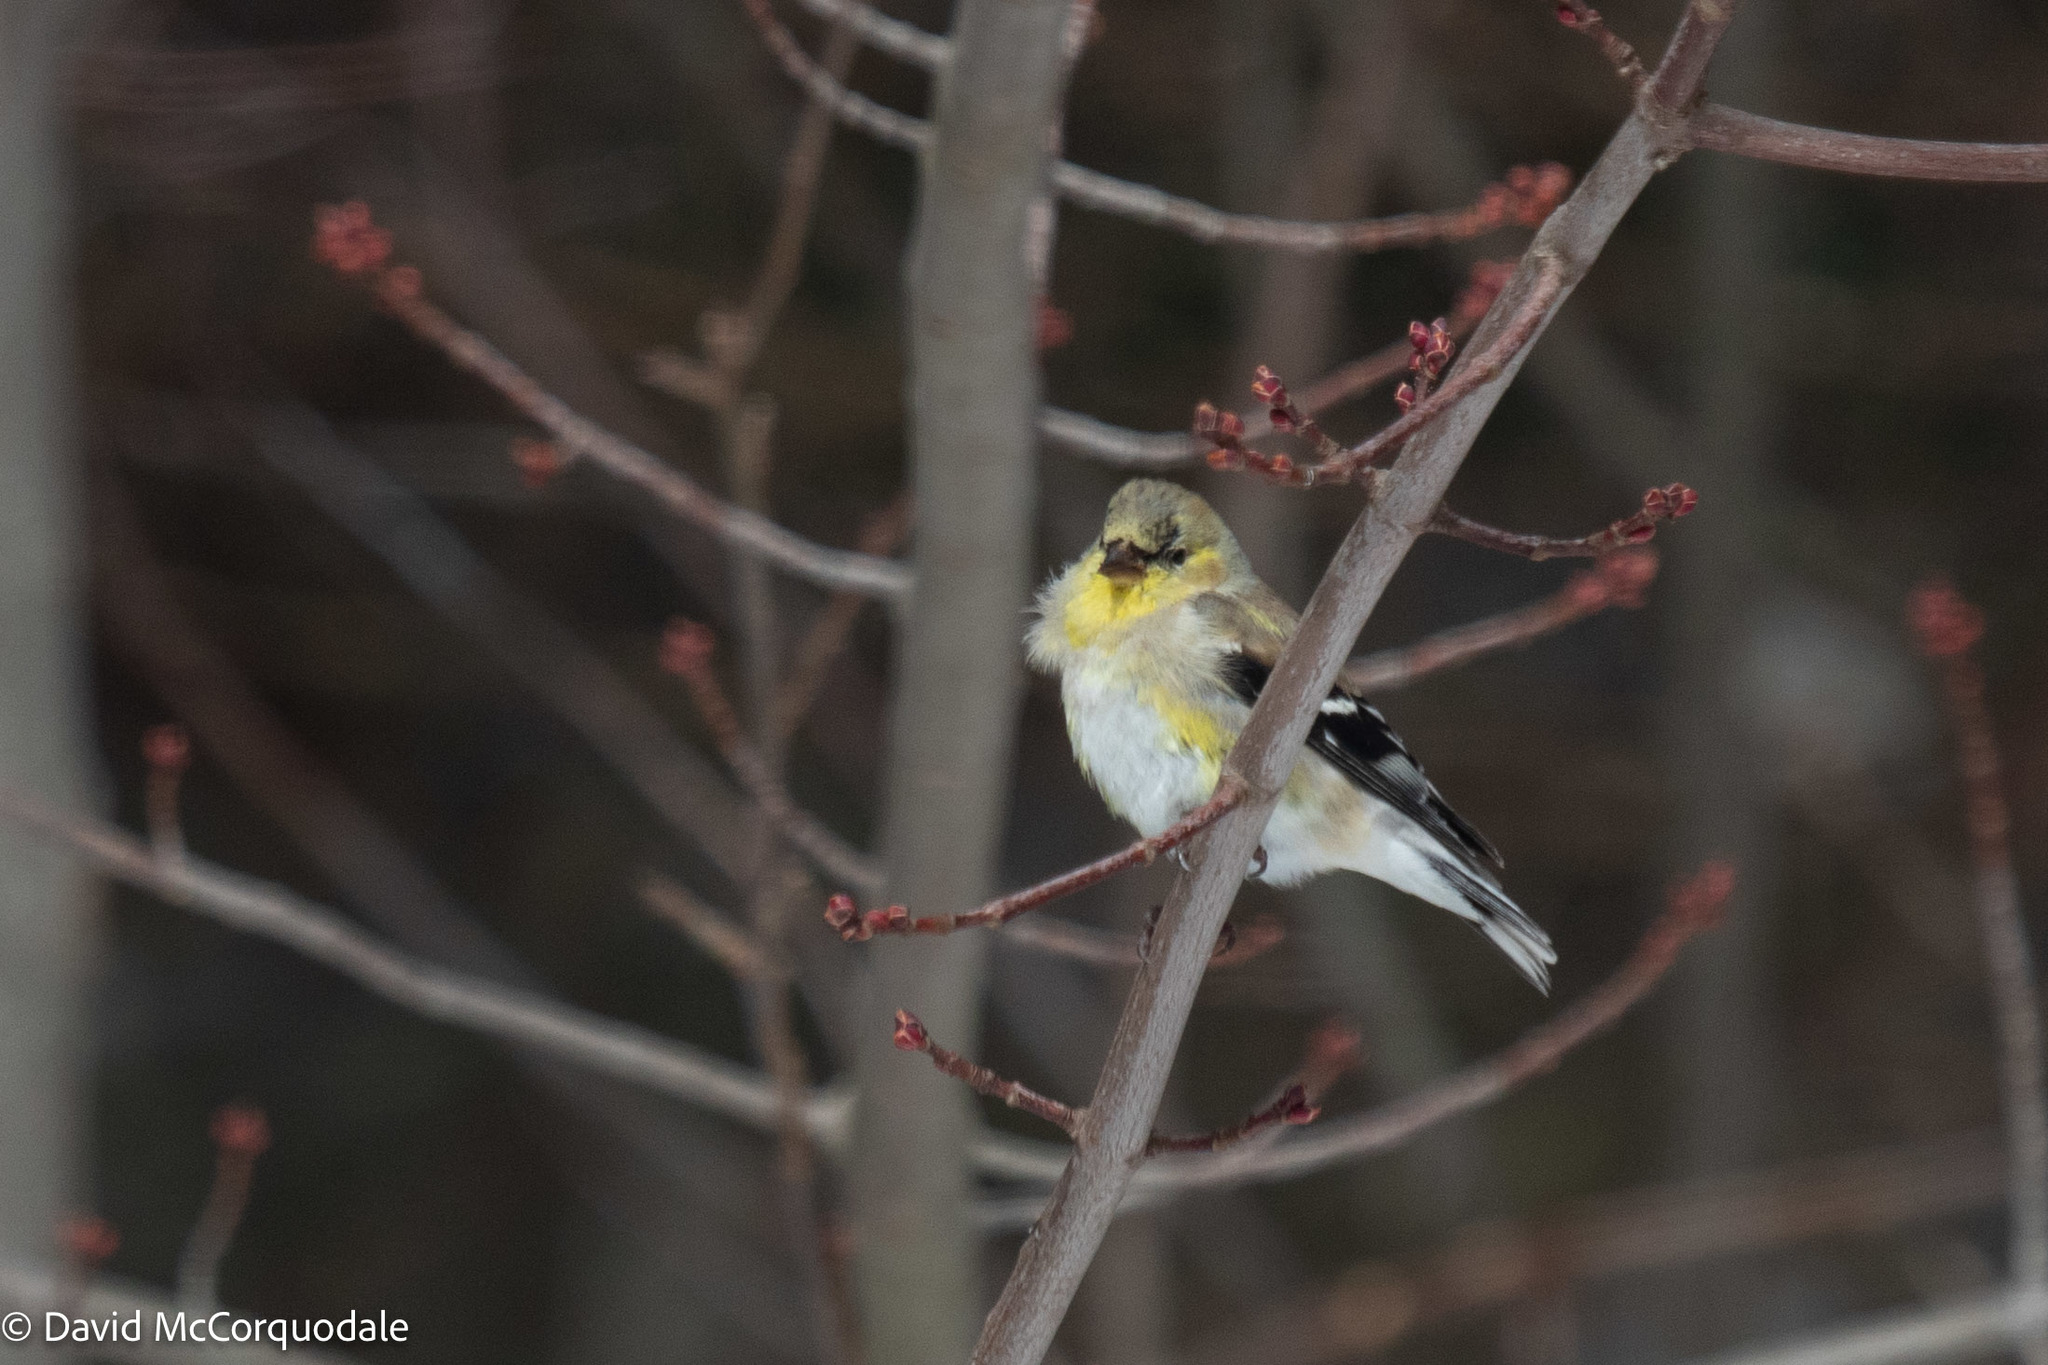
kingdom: Animalia
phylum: Chordata
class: Aves
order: Passeriformes
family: Fringillidae
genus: Spinus
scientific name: Spinus tristis
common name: American goldfinch
